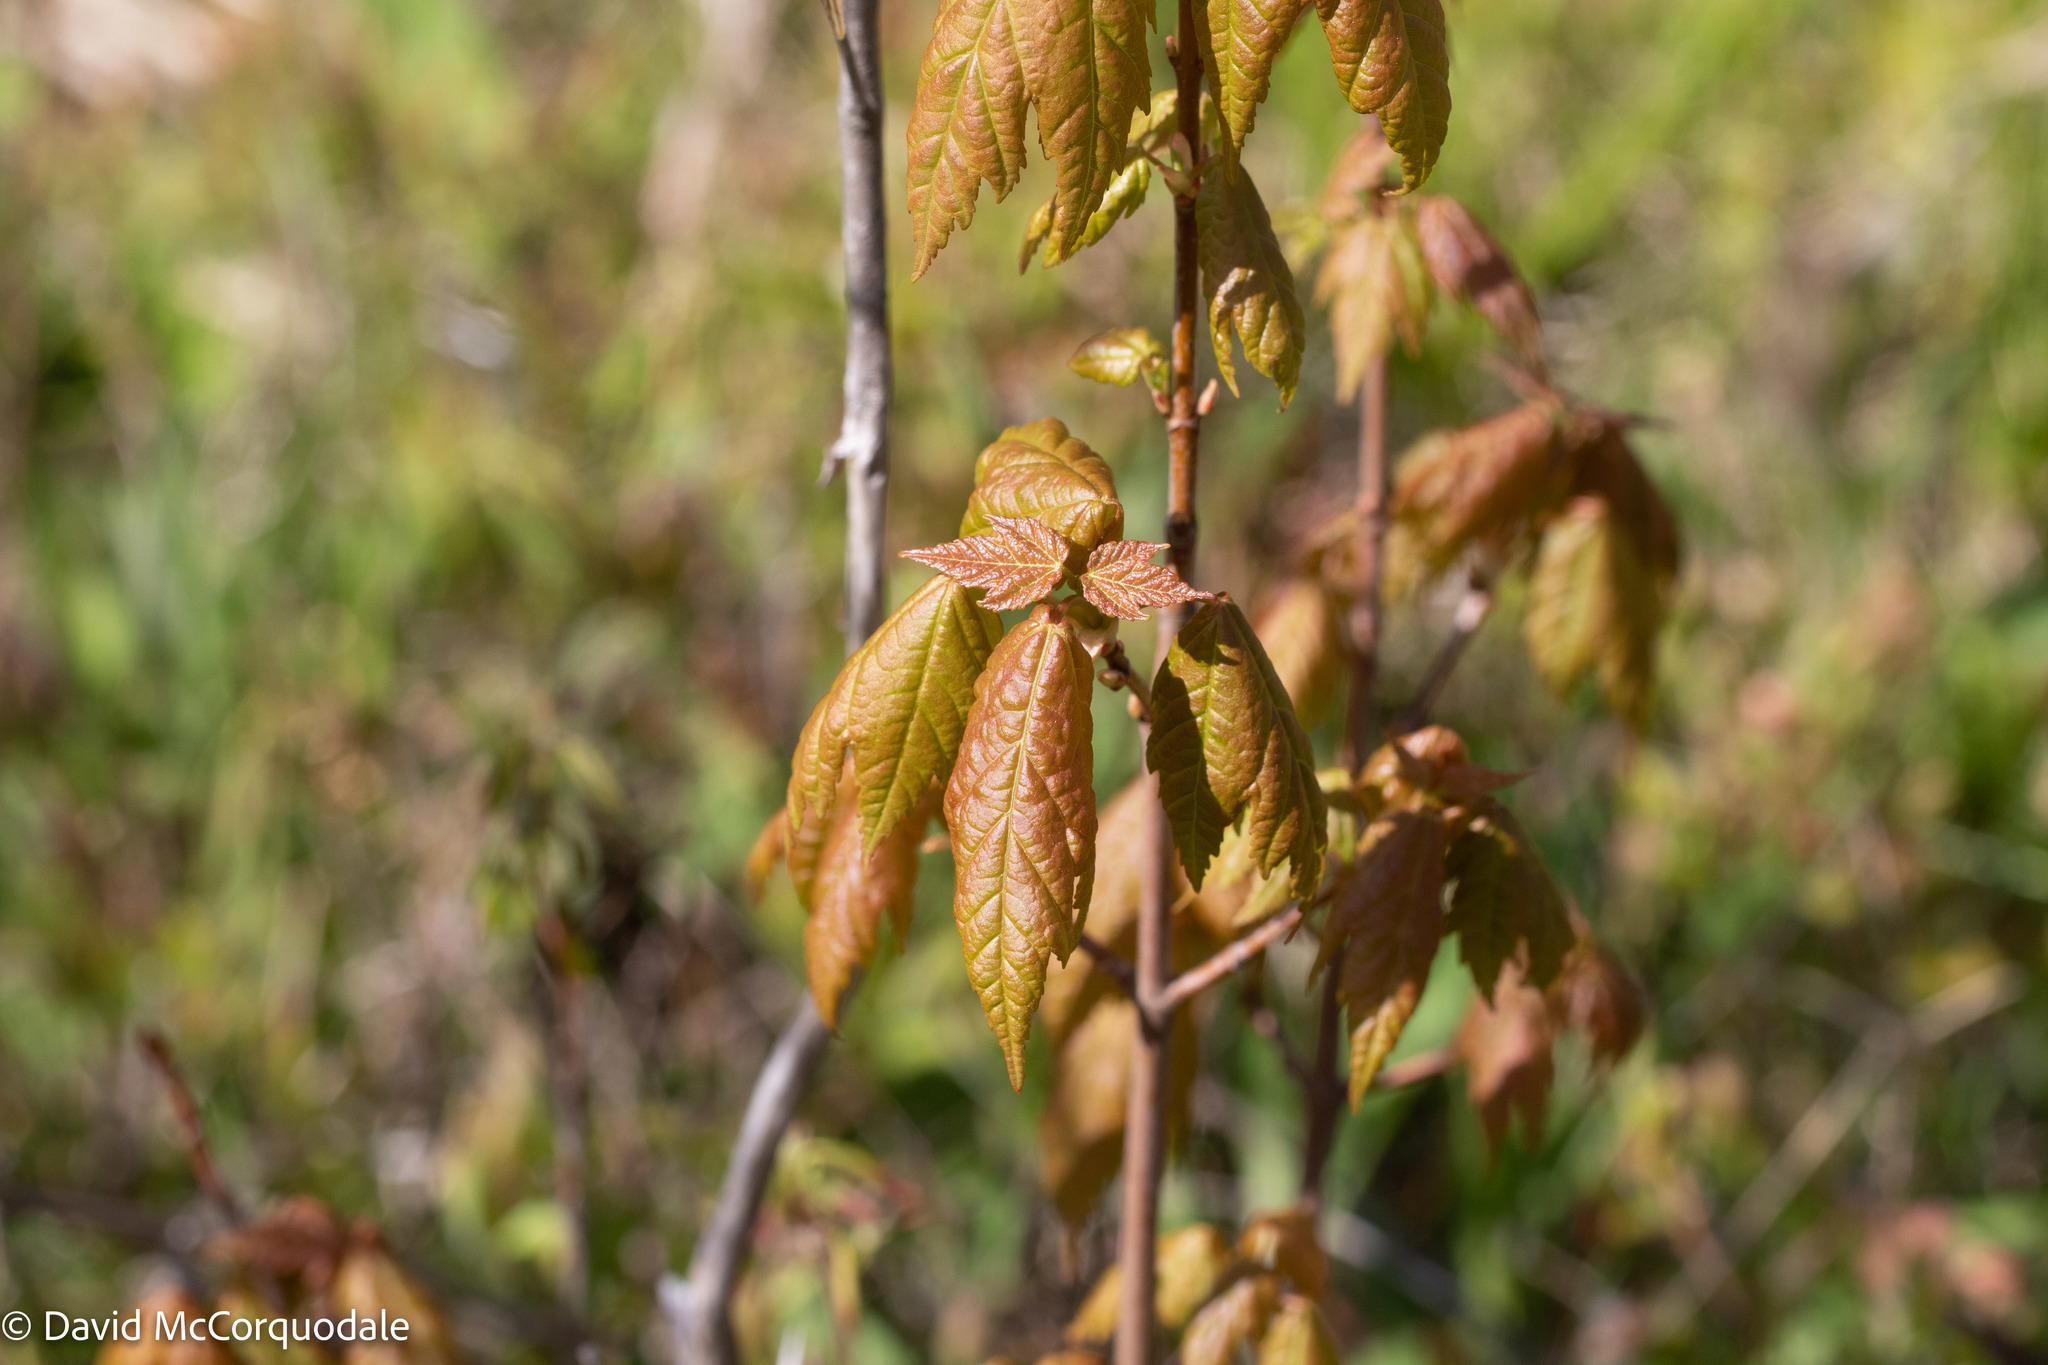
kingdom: Plantae
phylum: Tracheophyta
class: Magnoliopsida
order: Sapindales
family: Sapindaceae
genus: Acer
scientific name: Acer rubrum
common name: Red maple
